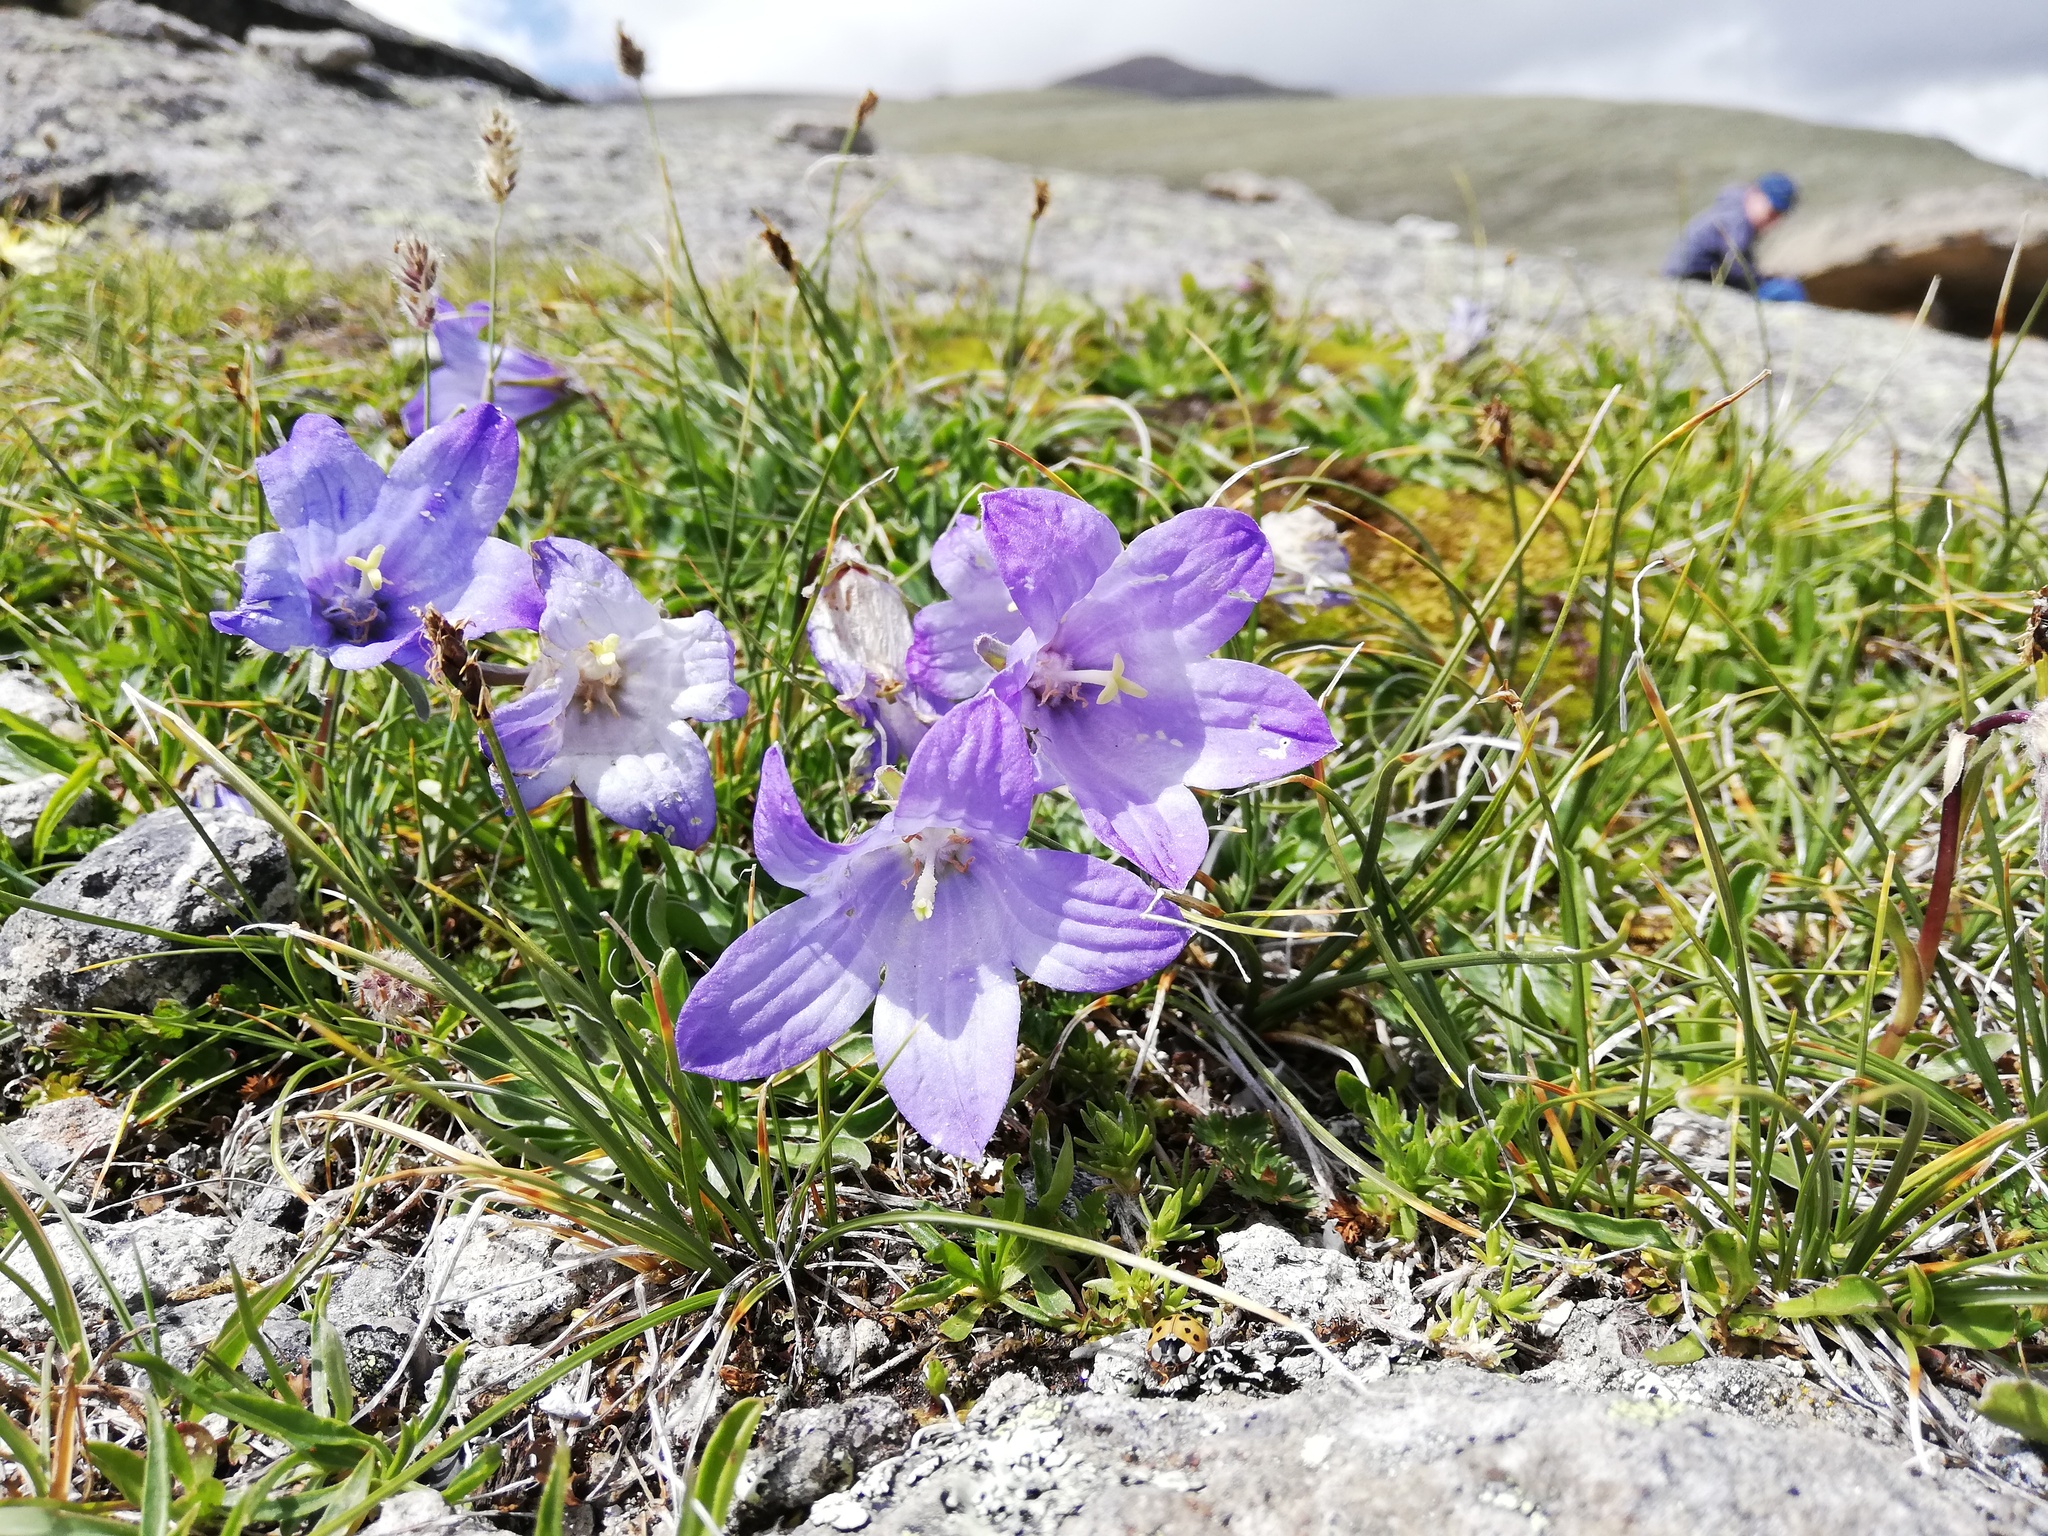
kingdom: Plantae
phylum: Tracheophyta
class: Magnoliopsida
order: Asterales
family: Campanulaceae
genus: Campanula
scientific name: Campanula tridentata
